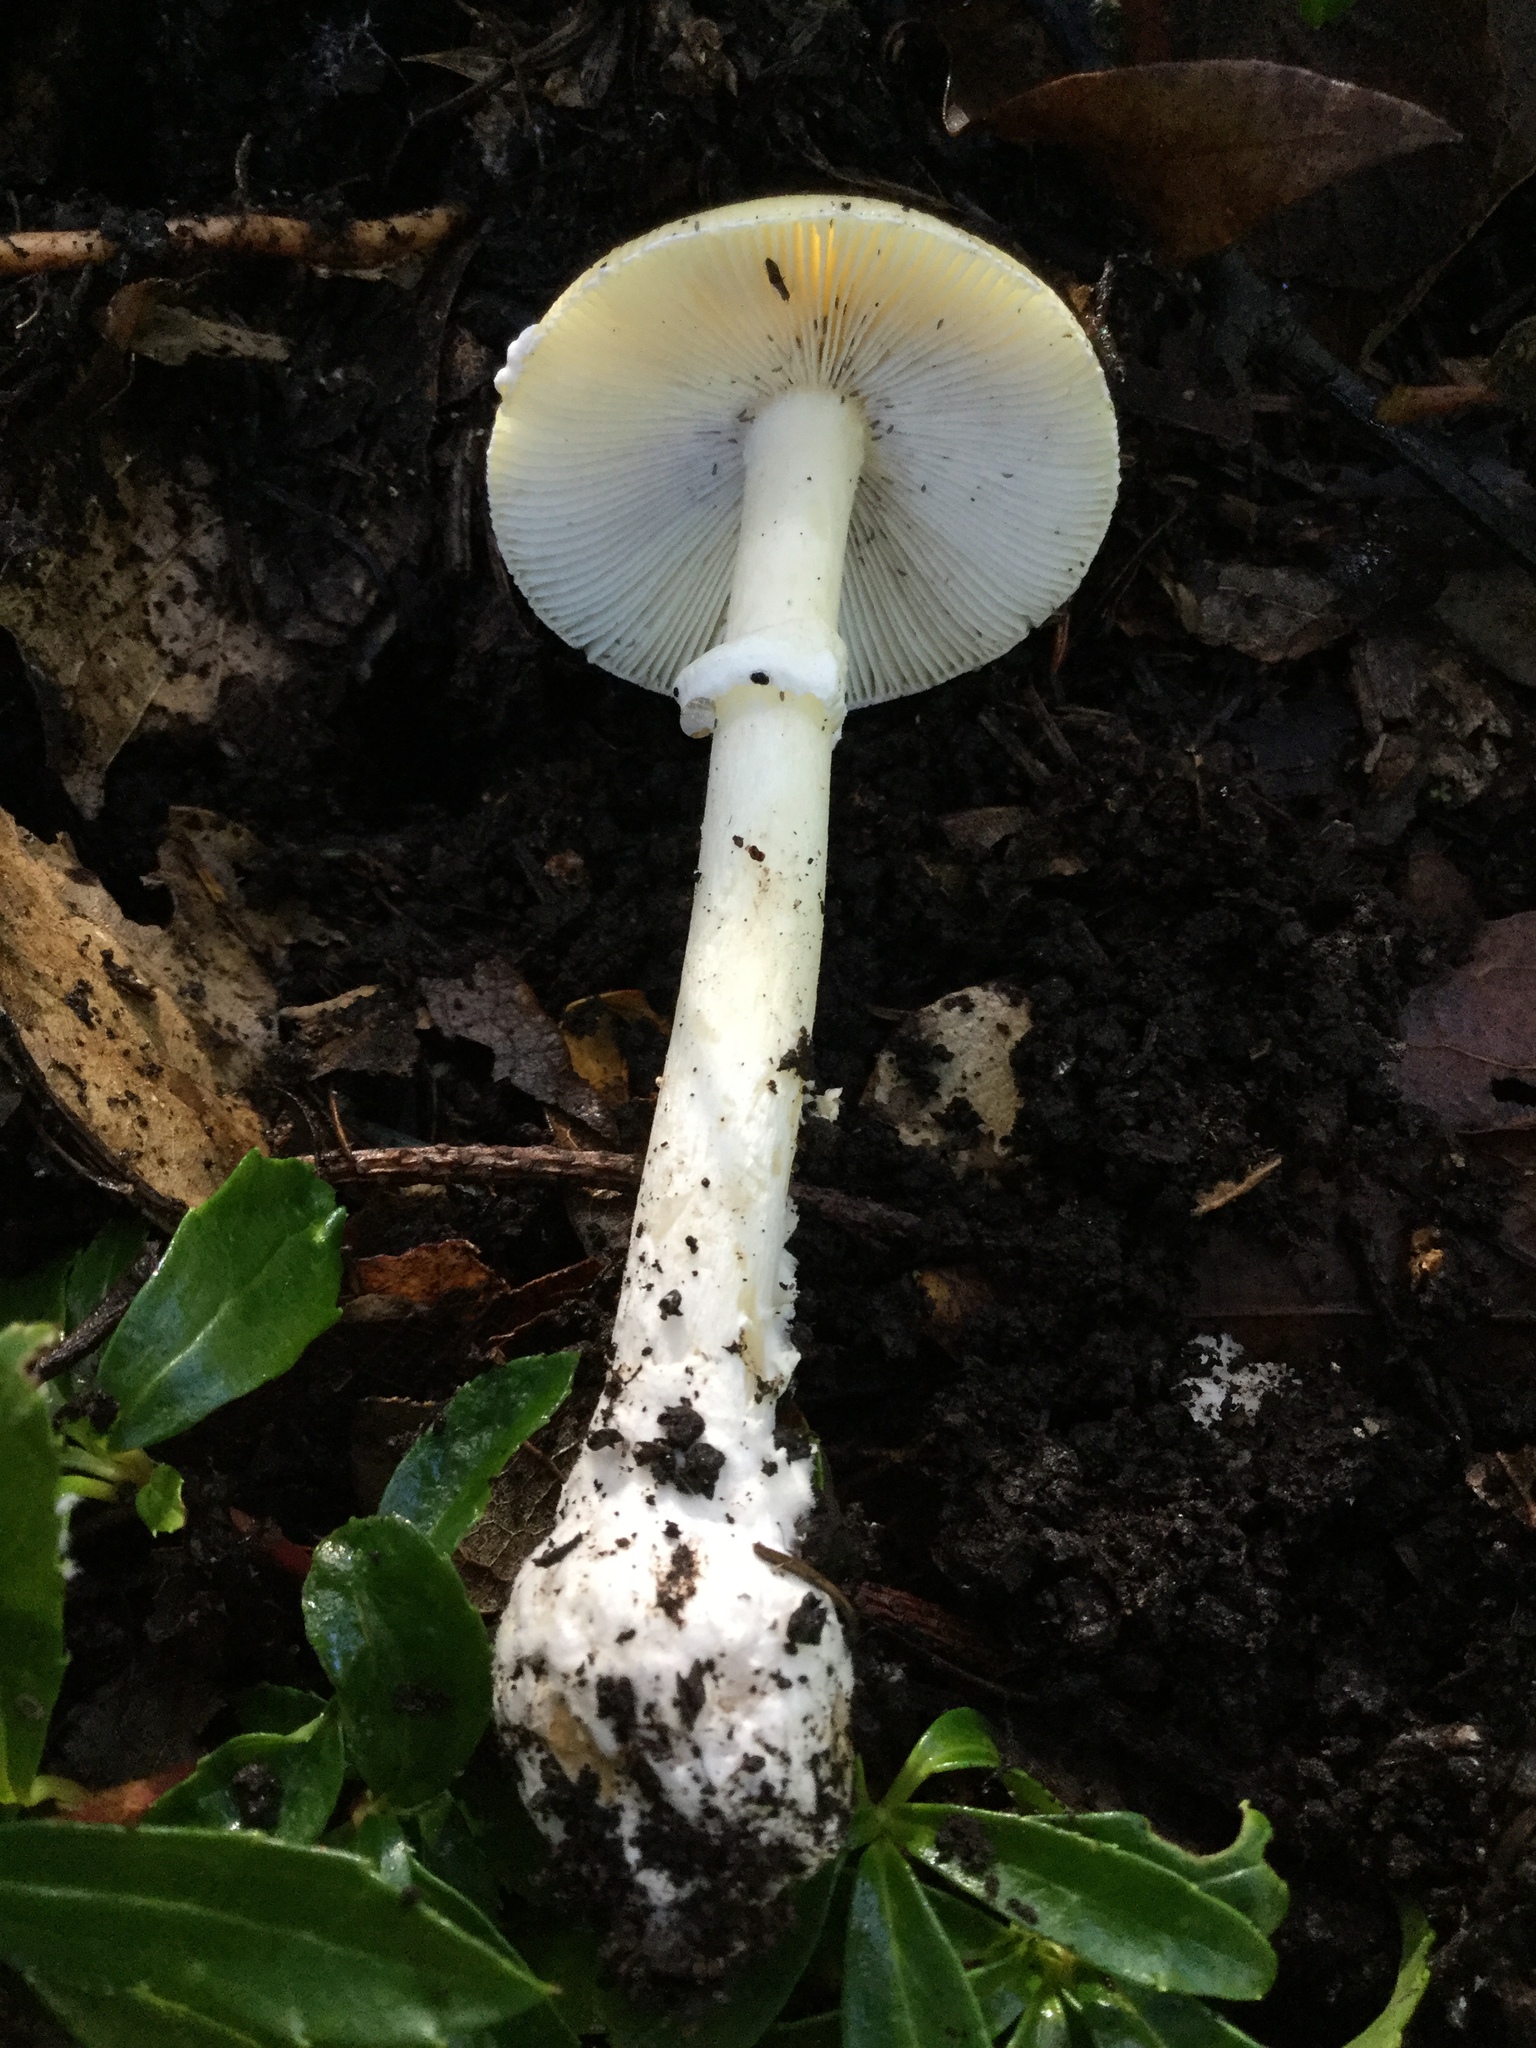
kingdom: Fungi
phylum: Basidiomycota
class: Agaricomycetes
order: Agaricales
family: Amanitaceae
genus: Amanita
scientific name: Amanita xylinivolva
